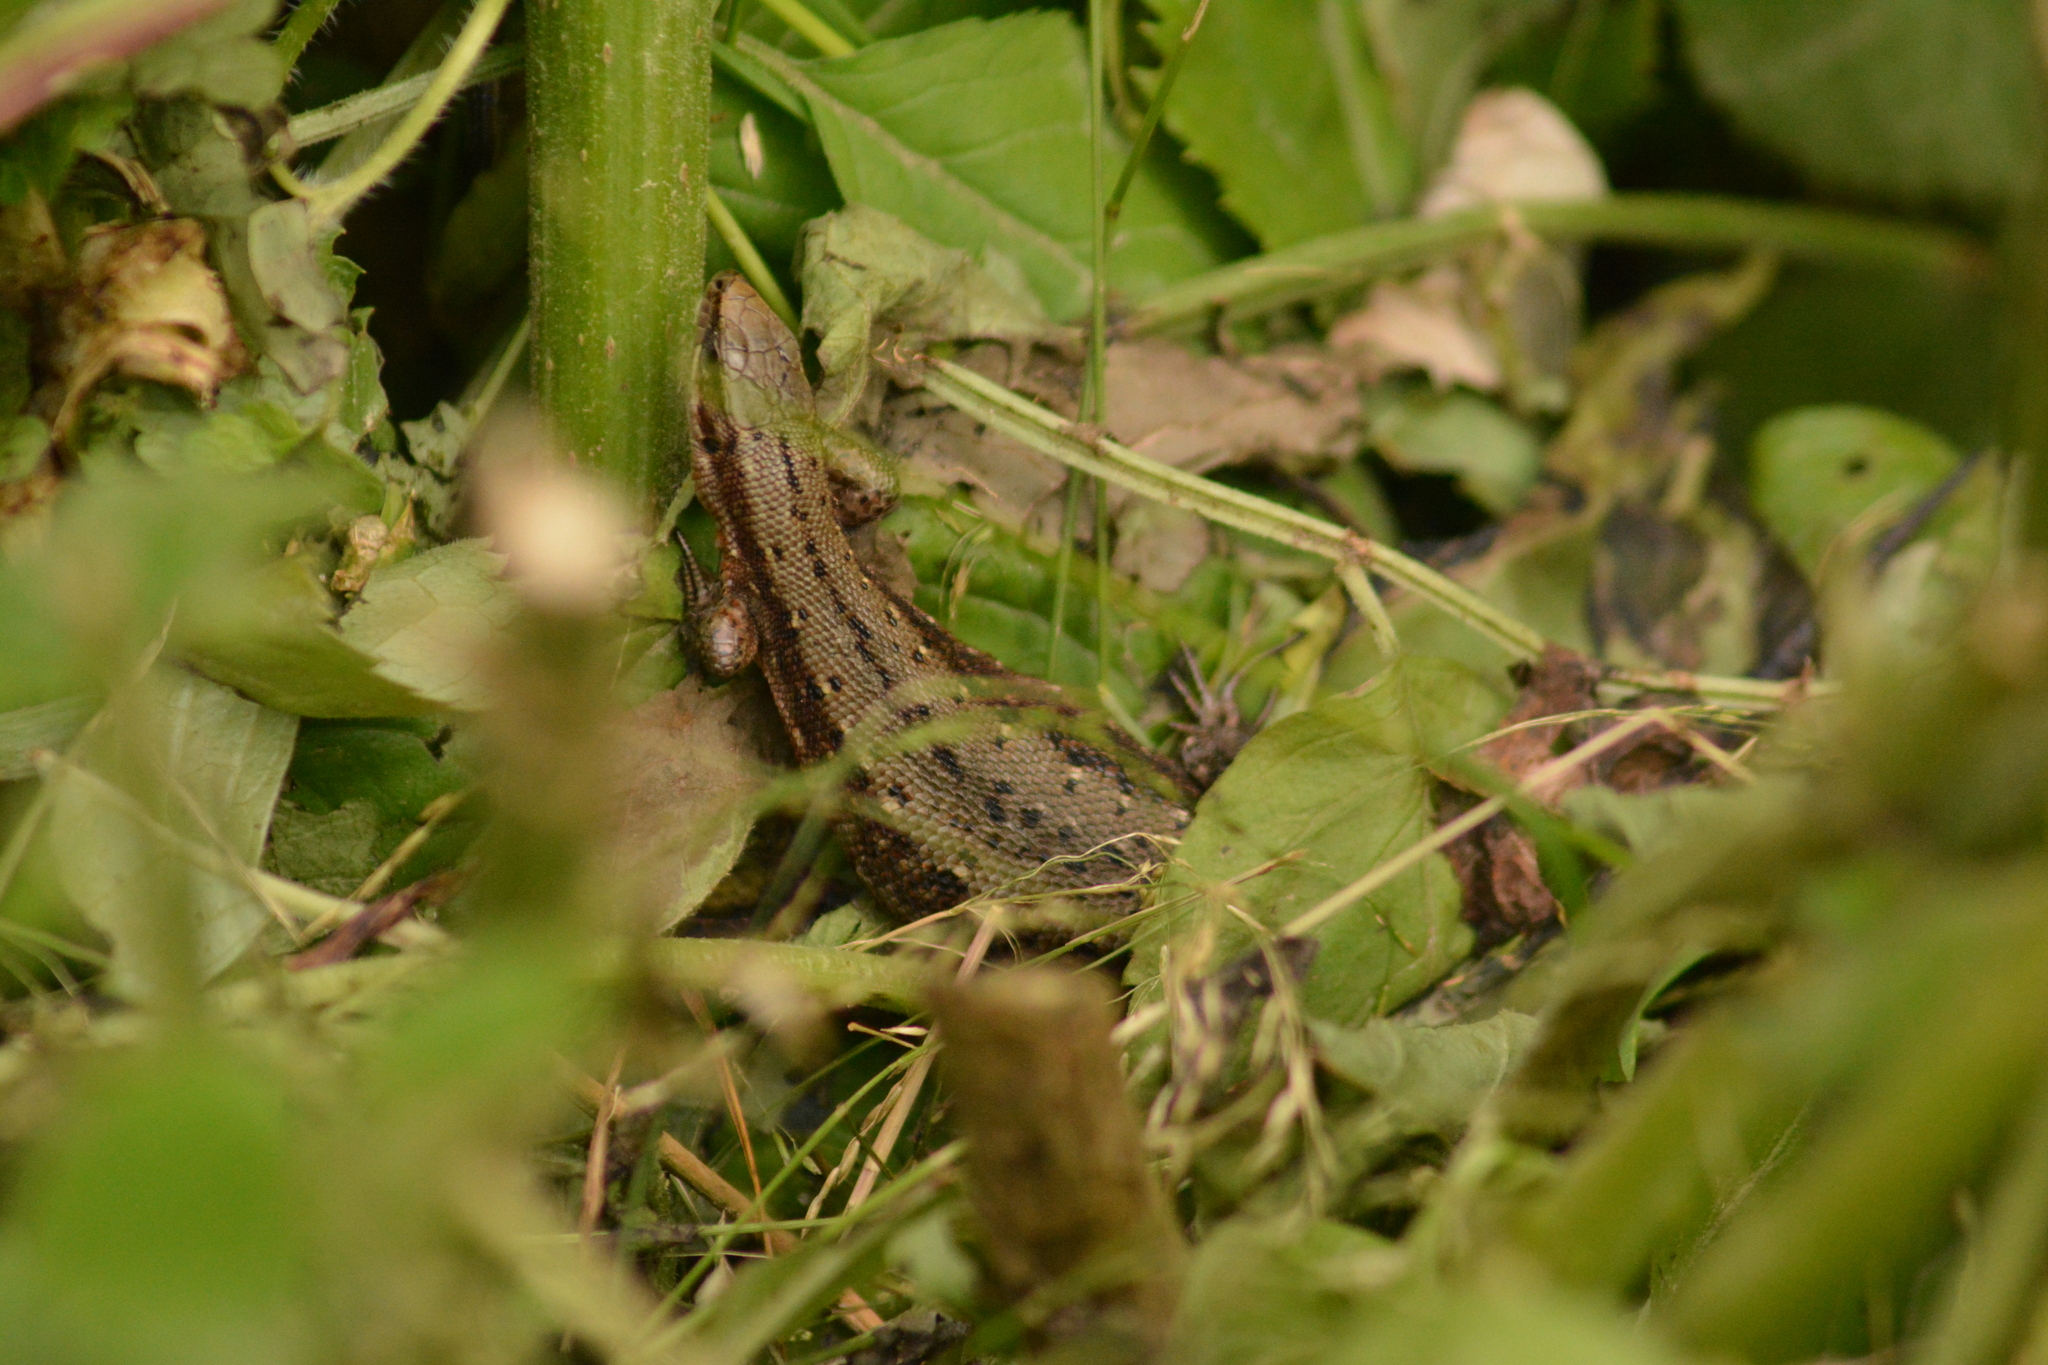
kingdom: Animalia
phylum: Chordata
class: Squamata
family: Lacertidae
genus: Zootoca
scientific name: Zootoca vivipara
